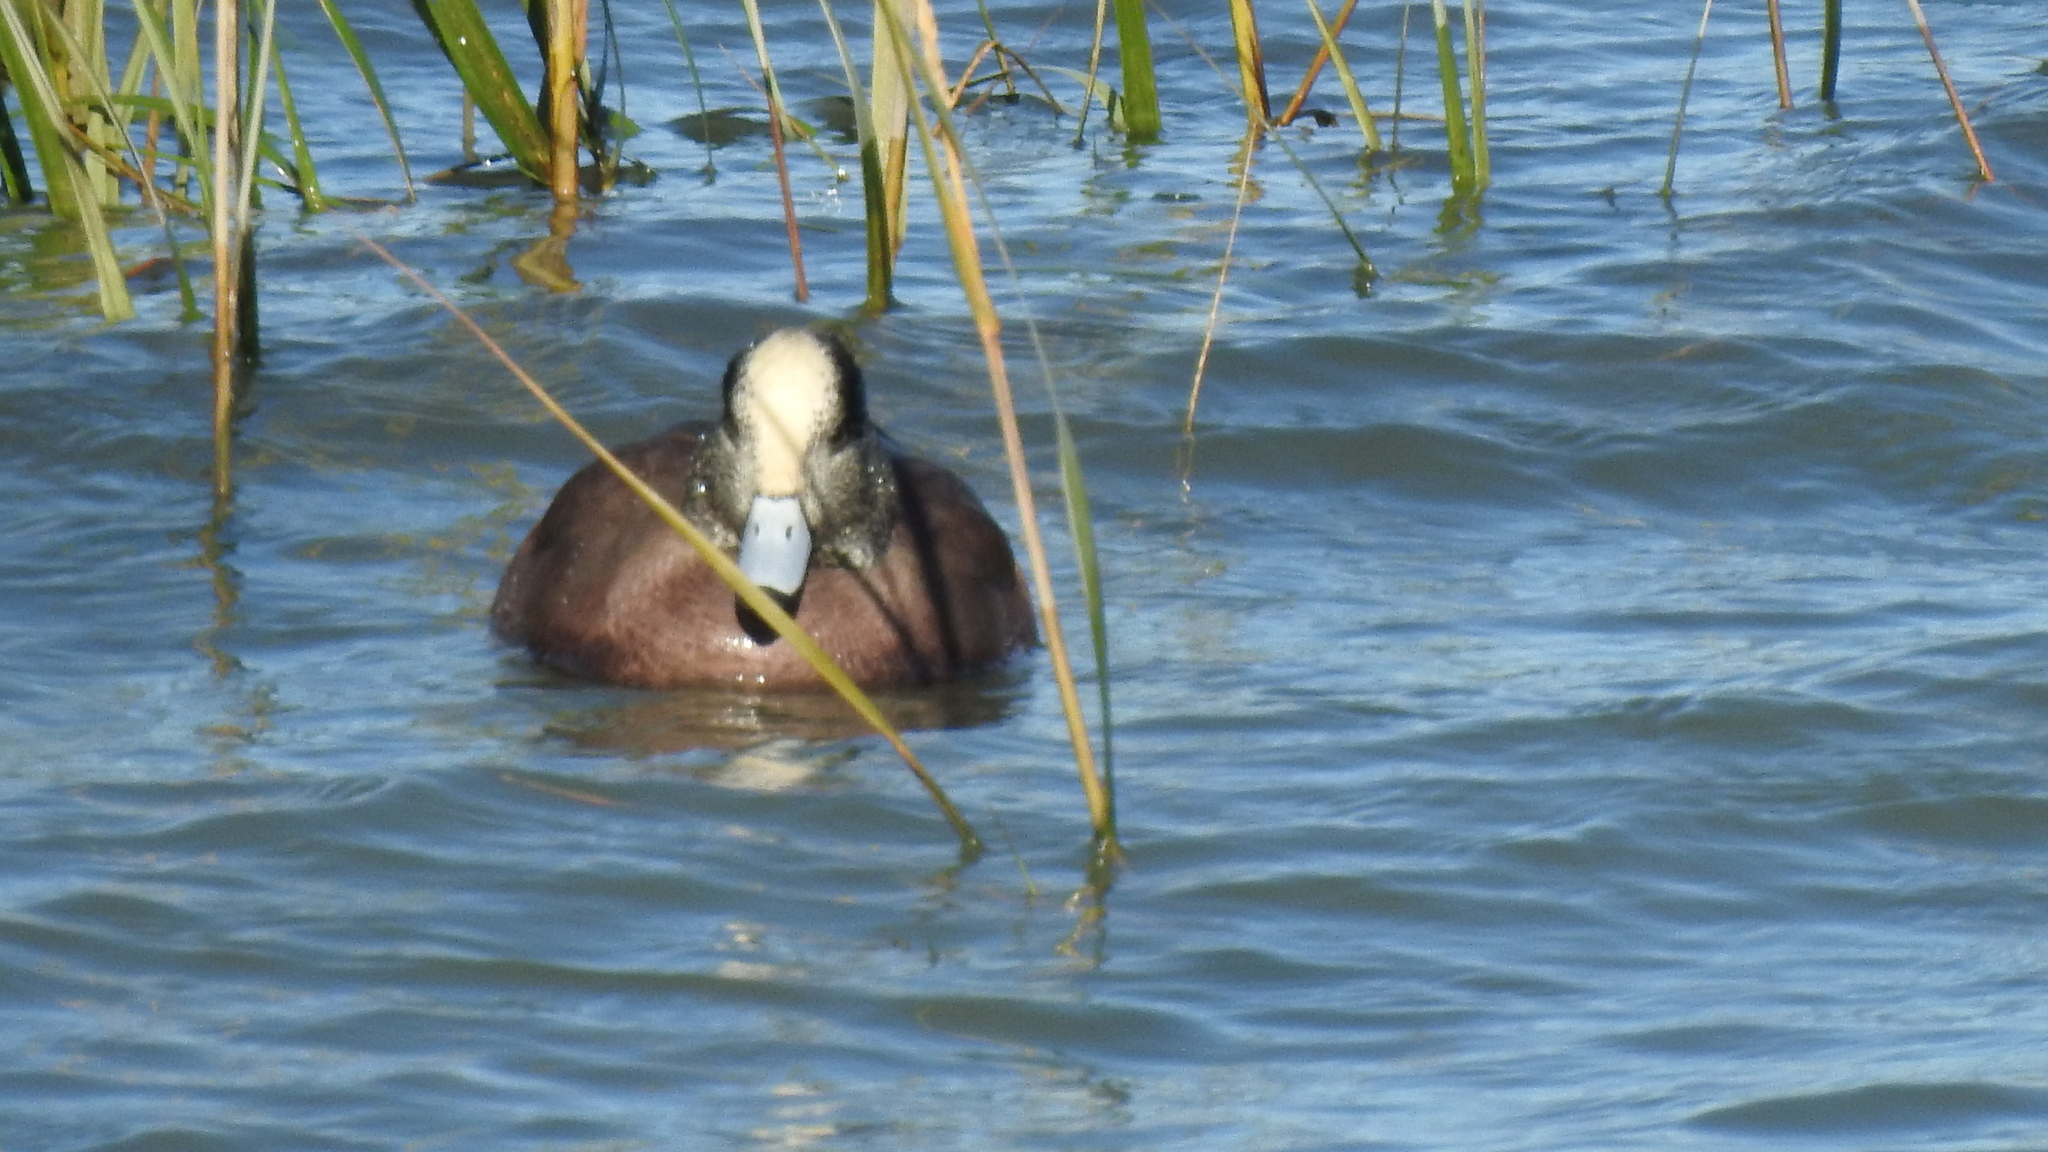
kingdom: Animalia
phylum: Chordata
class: Aves
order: Anseriformes
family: Anatidae
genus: Mareca
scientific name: Mareca americana
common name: American wigeon
